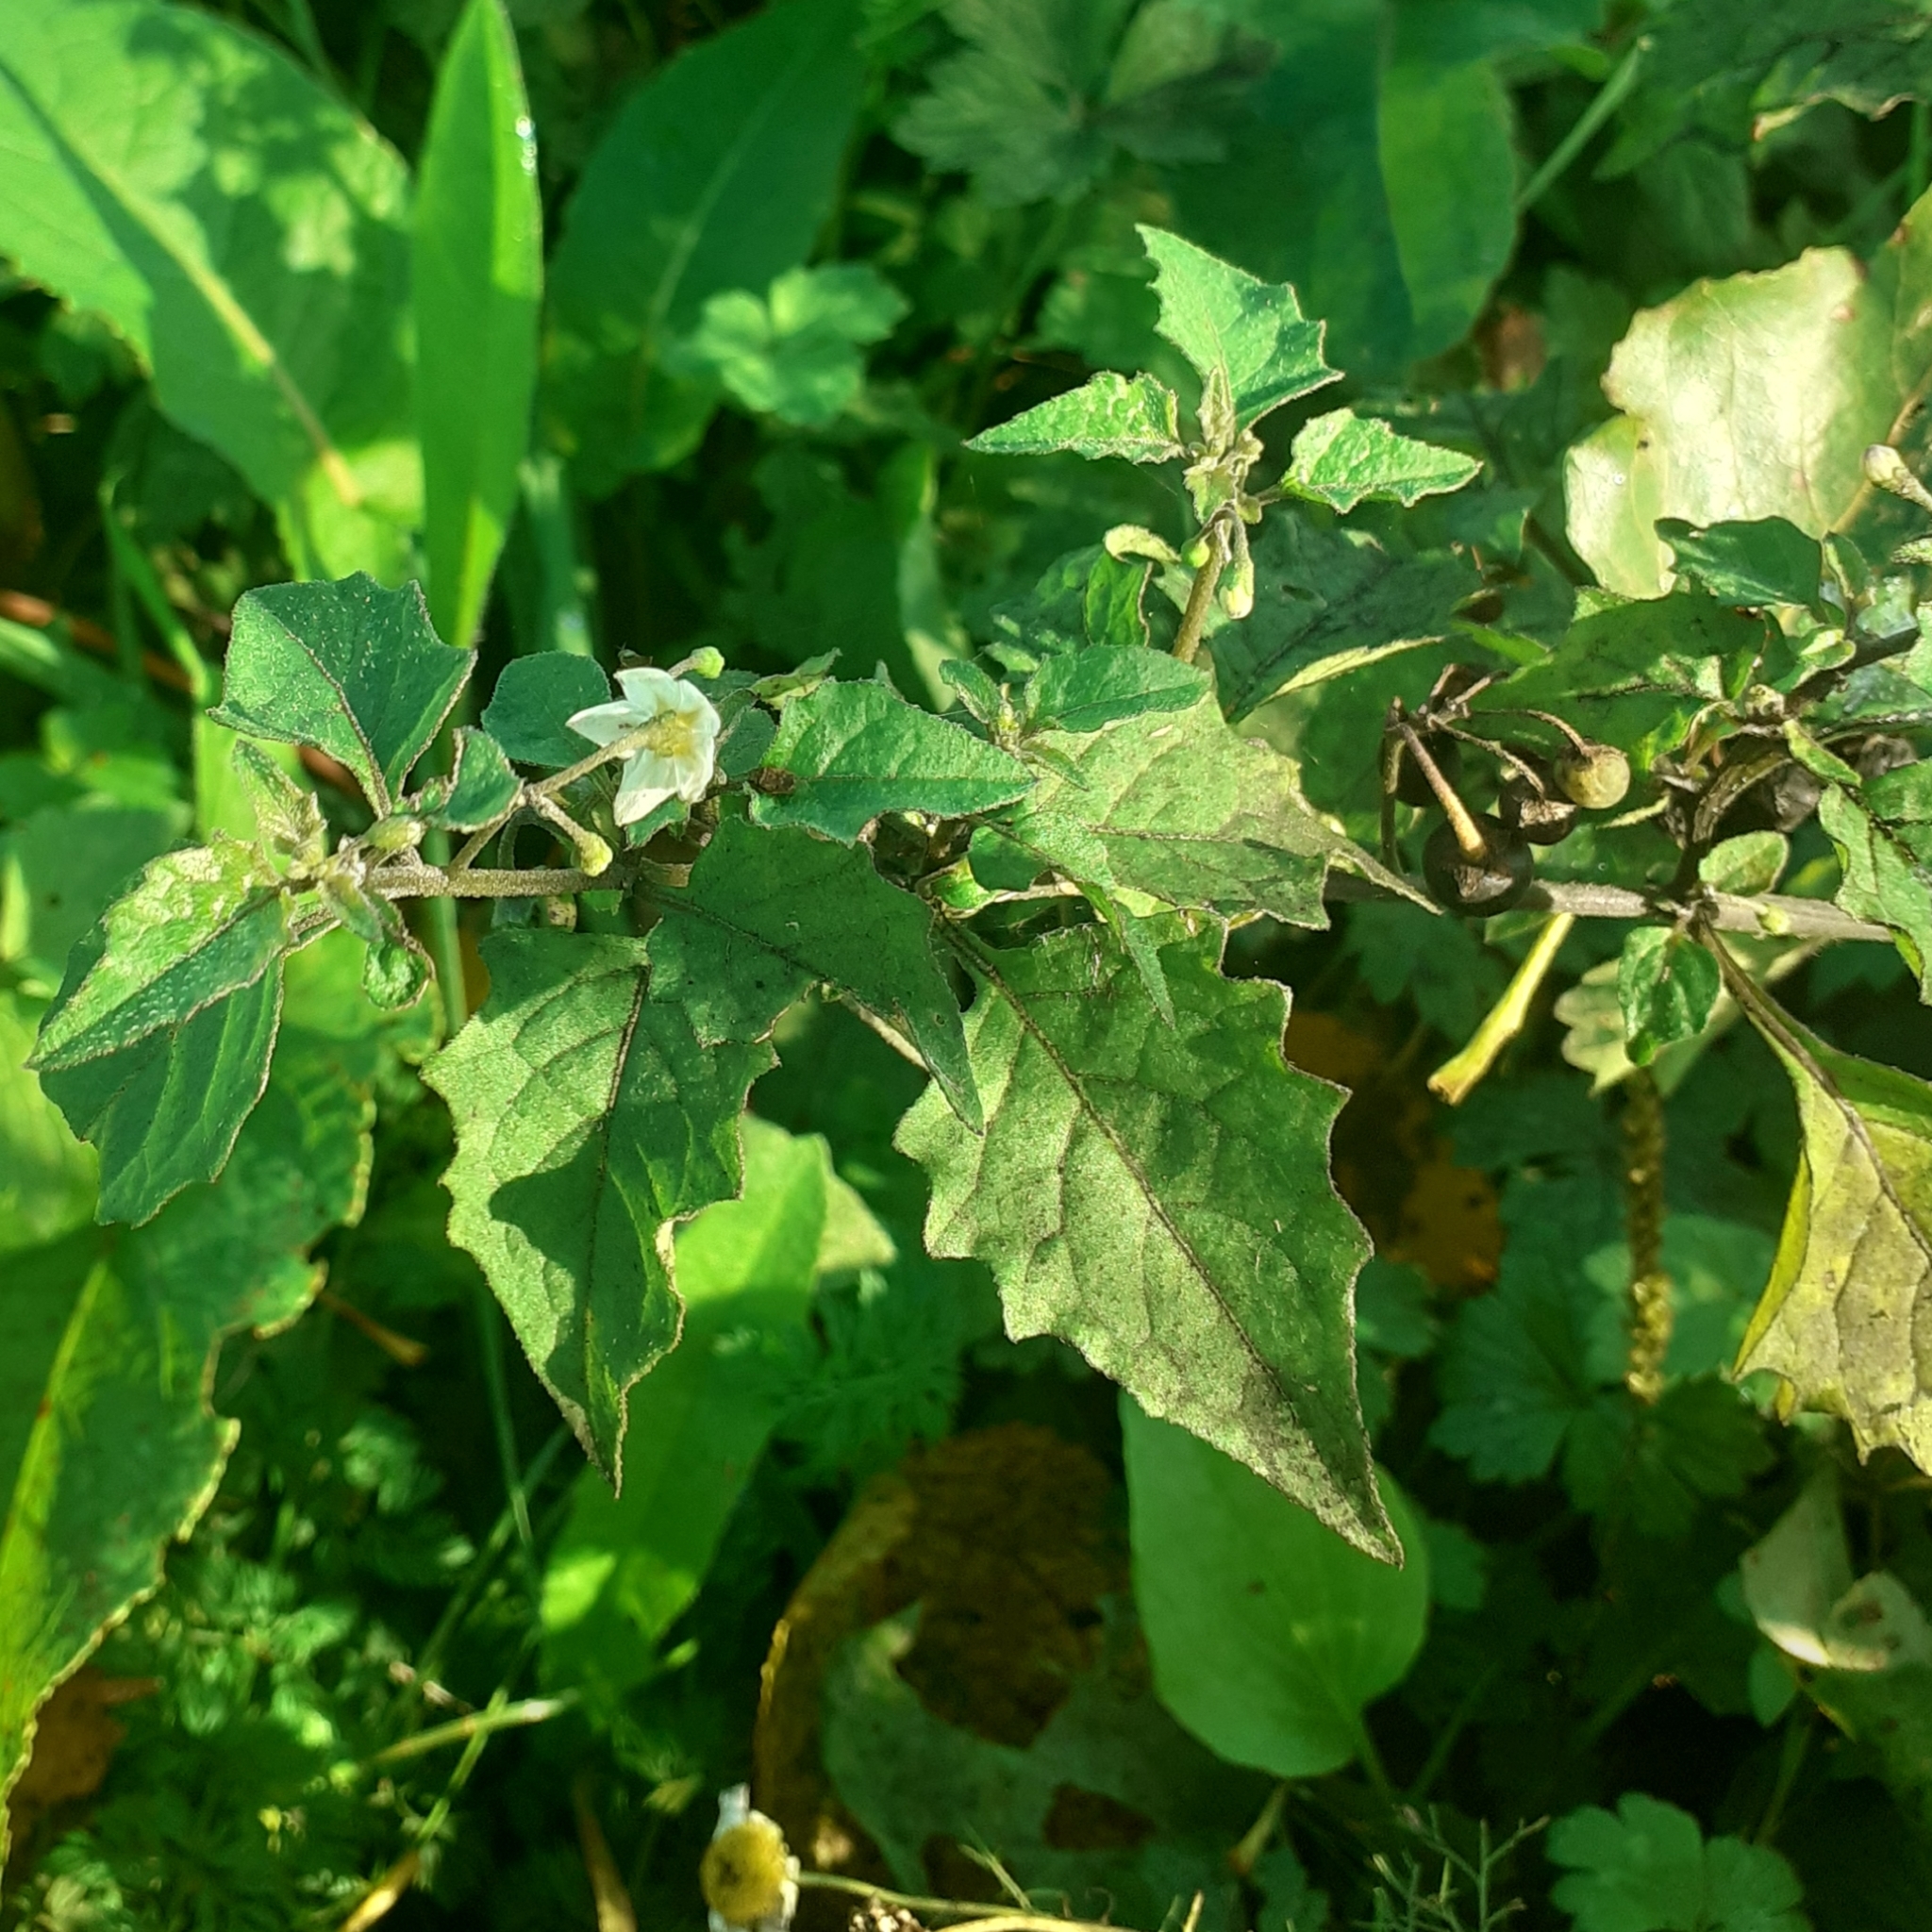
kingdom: Plantae
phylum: Tracheophyta
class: Magnoliopsida
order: Solanales
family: Solanaceae
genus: Solanum
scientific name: Solanum nigrum
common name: Black nightshade
